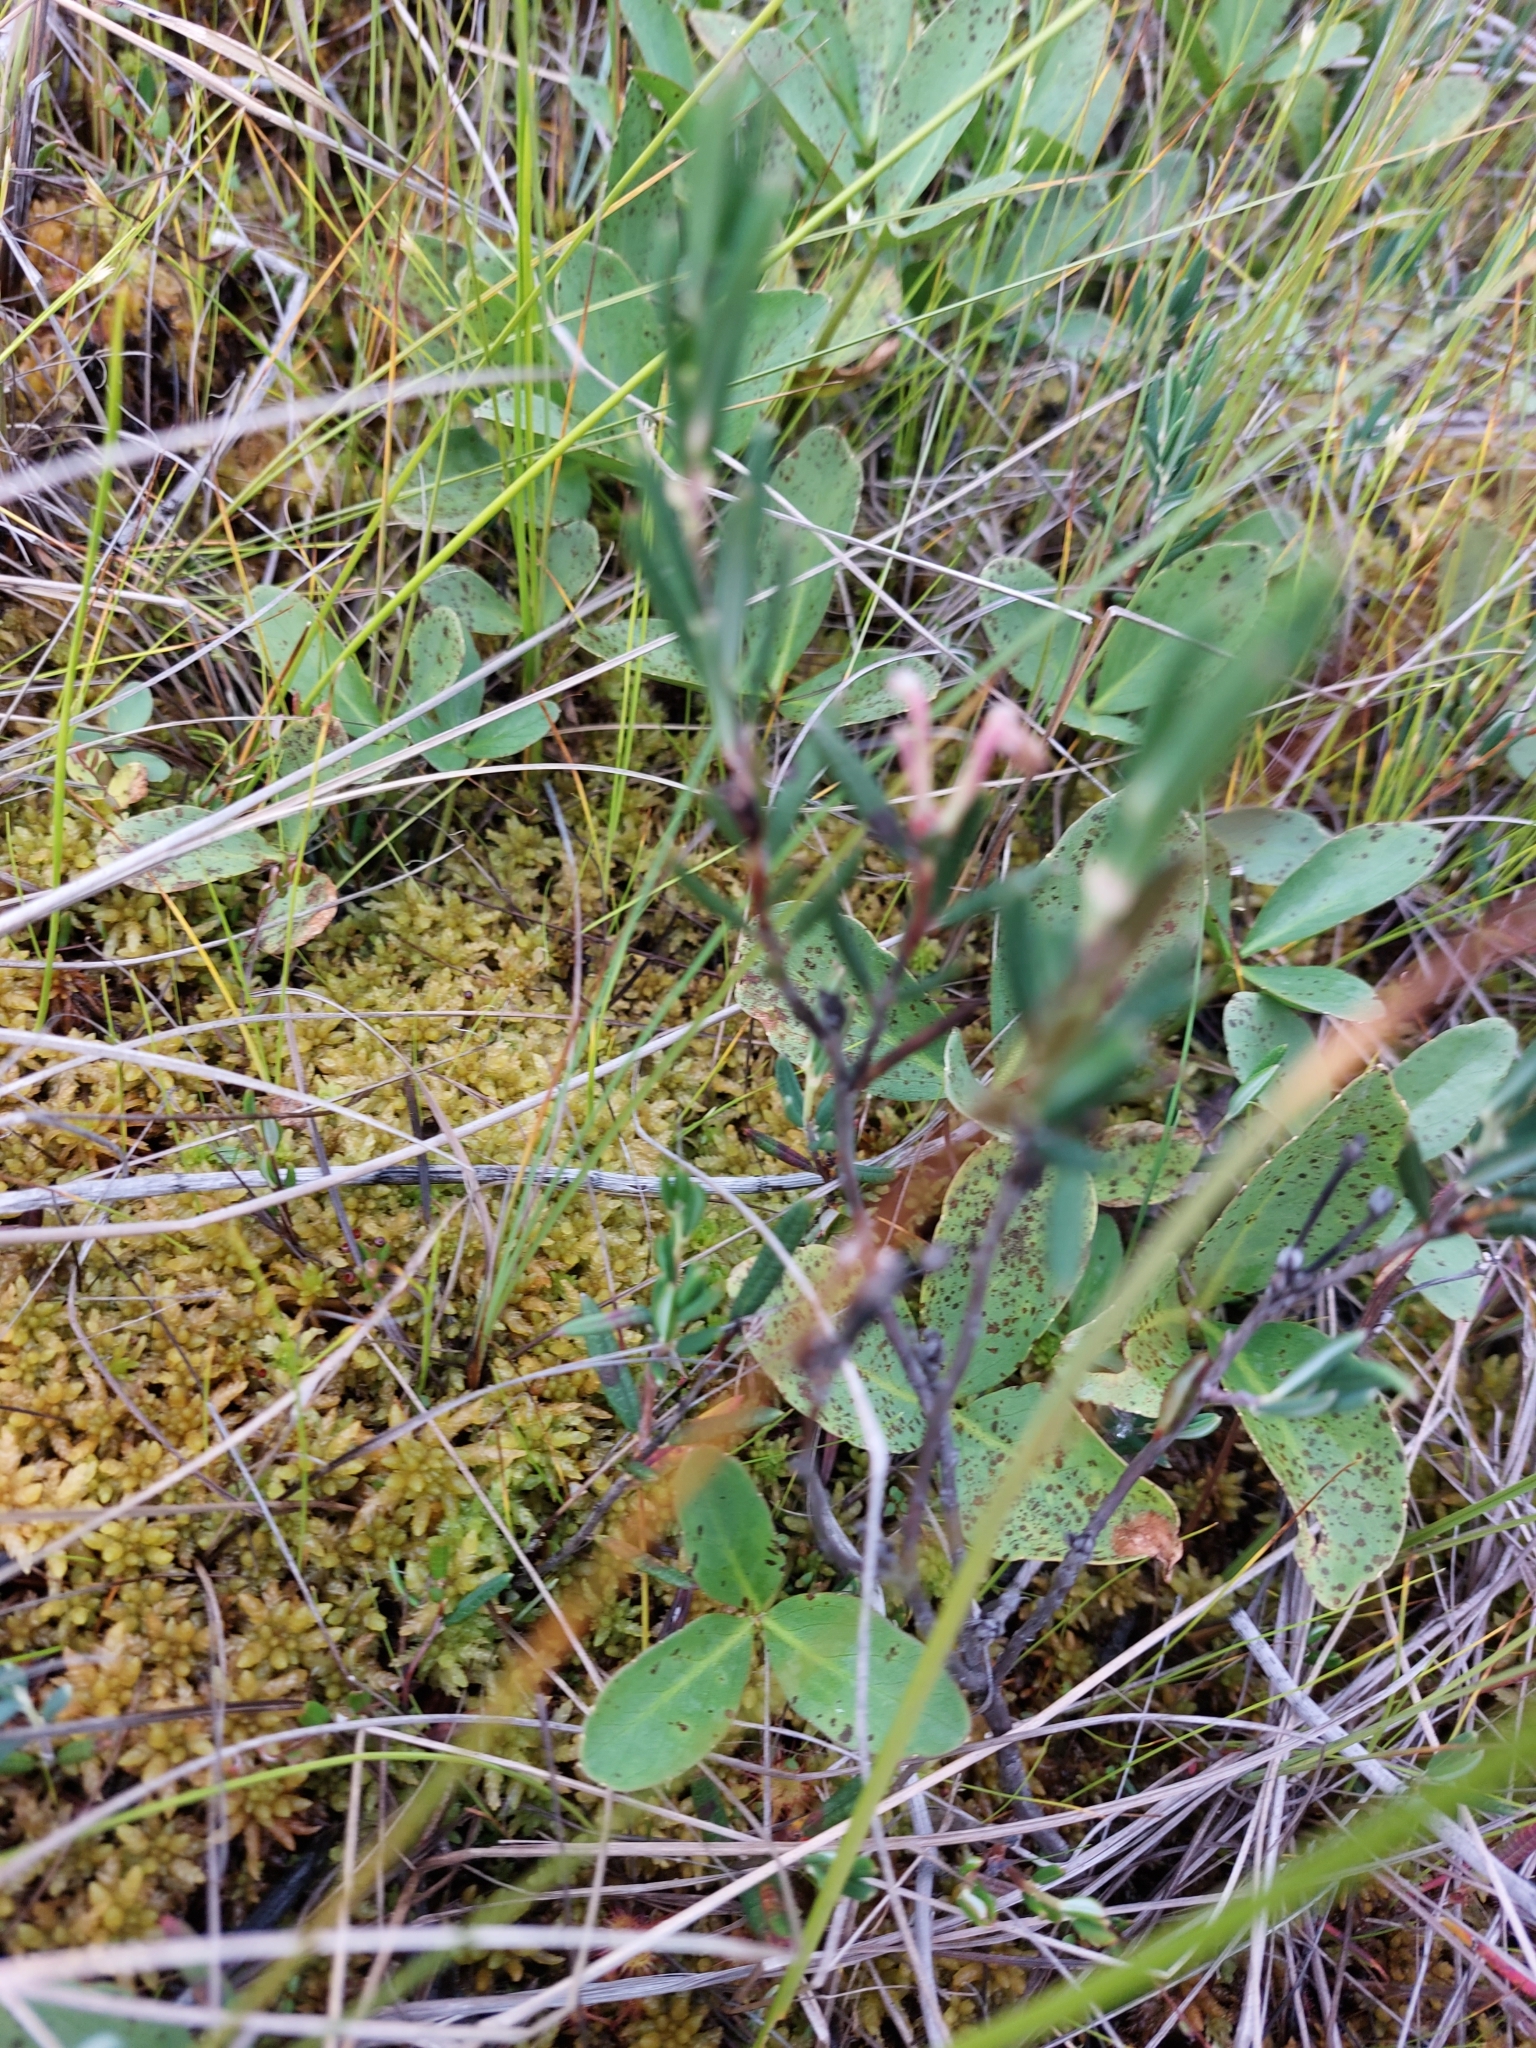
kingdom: Plantae
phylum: Tracheophyta
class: Magnoliopsida
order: Asterales
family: Menyanthaceae
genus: Menyanthes
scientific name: Menyanthes trifoliata
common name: Bogbean
